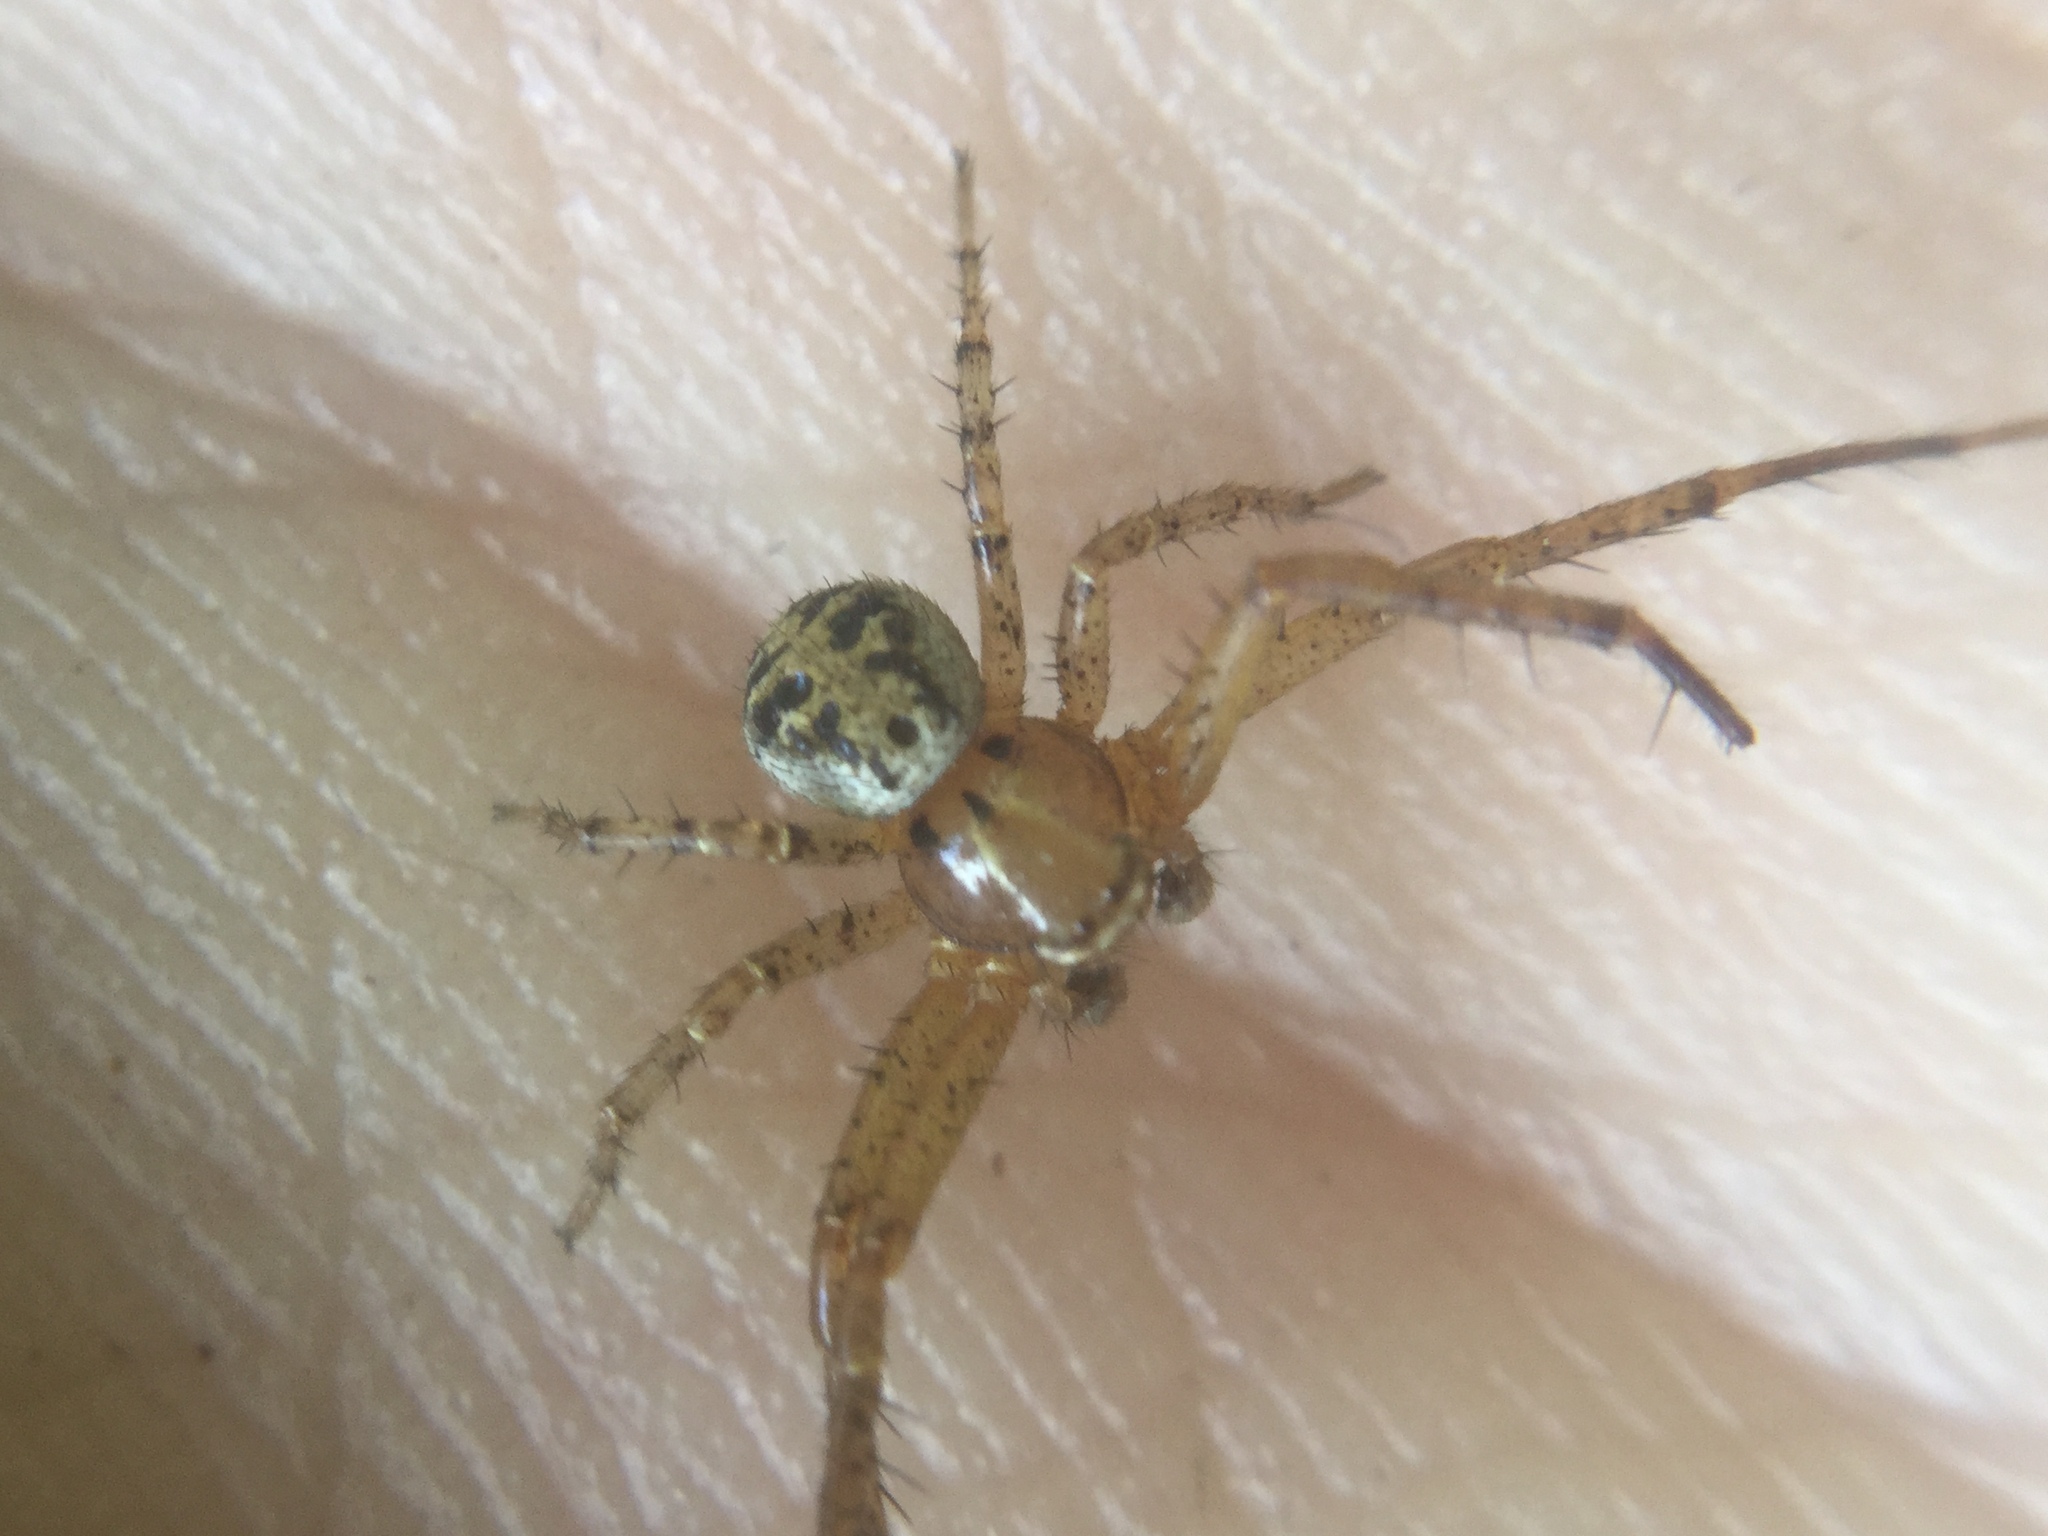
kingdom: Animalia
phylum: Arthropoda
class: Arachnida
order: Araneae
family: Thomisidae
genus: Xysticus
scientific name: Xysticus auctificus
